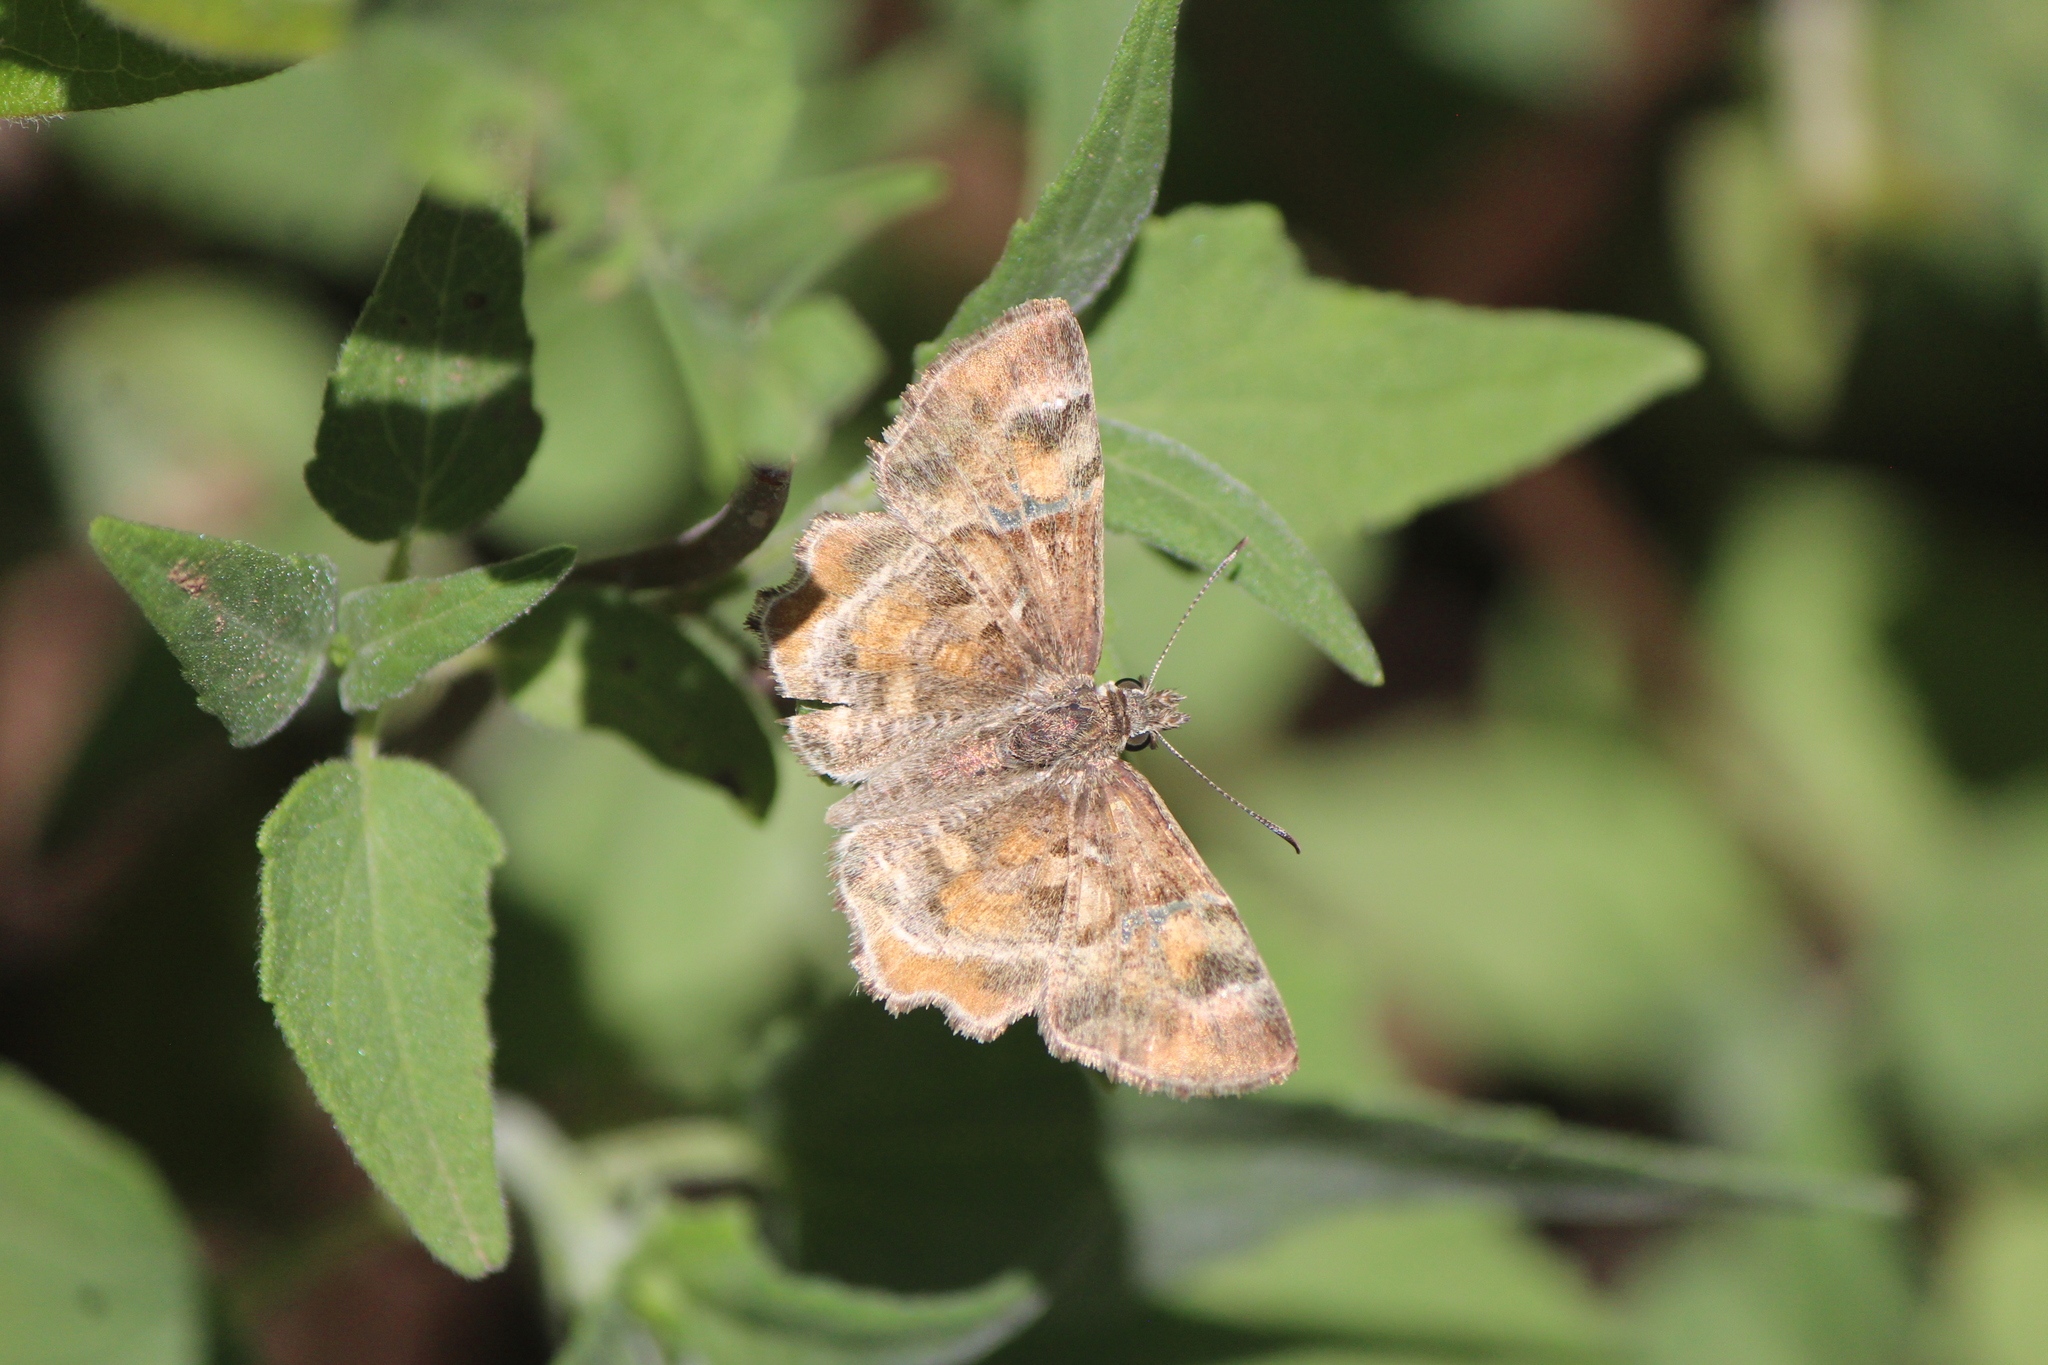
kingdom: Animalia
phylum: Arthropoda
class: Insecta
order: Lepidoptera
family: Hesperiidae
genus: Systasea
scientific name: Systasea pulverulenta
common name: Texas powdered skipper
